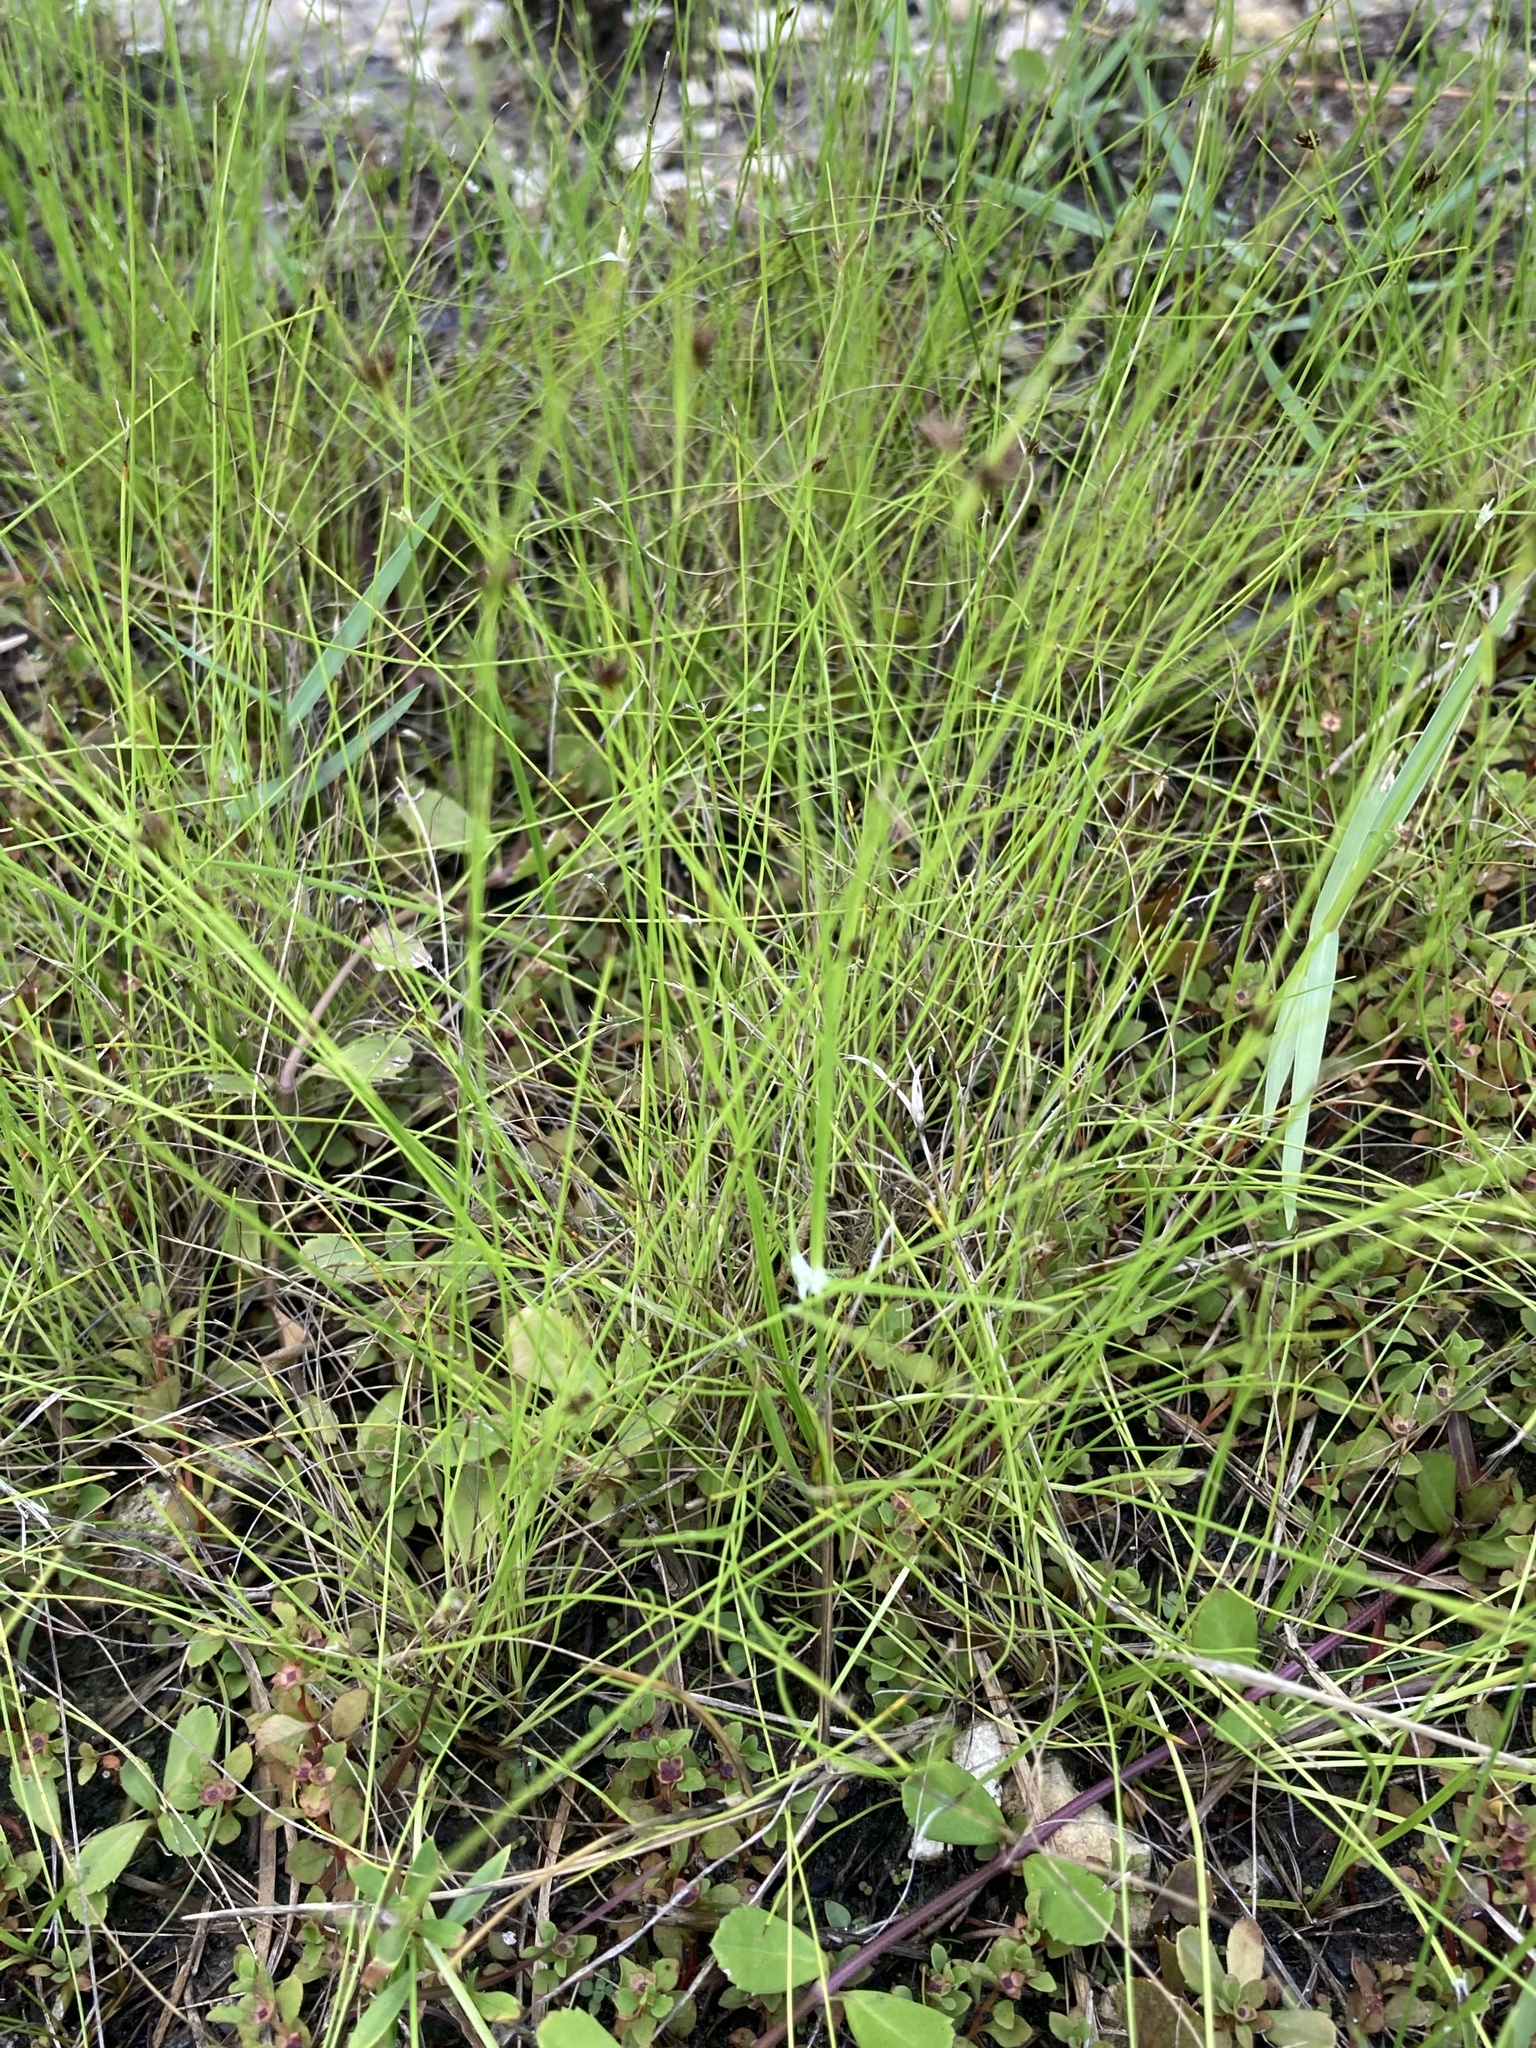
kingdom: Plantae
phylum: Tracheophyta
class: Liliopsida
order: Poales
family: Cyperaceae
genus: Rhynchospora
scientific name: Rhynchospora divergens
